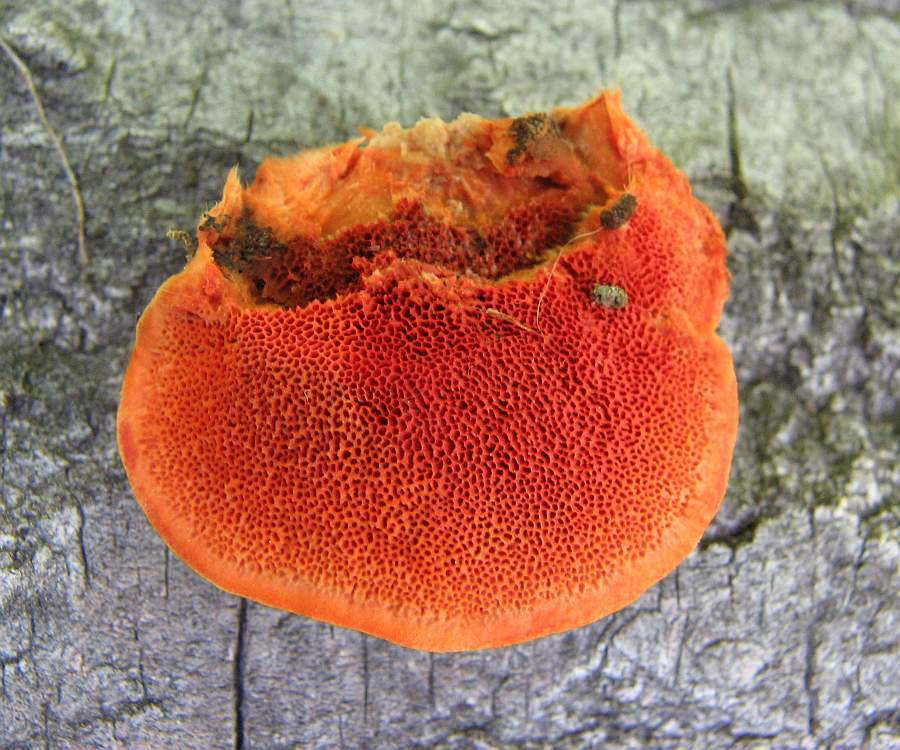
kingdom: Fungi
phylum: Basidiomycota
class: Agaricomycetes
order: Polyporales
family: Polyporaceae
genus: Trametes
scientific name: Trametes cinnabarina
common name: Northern cinnabar polypore
